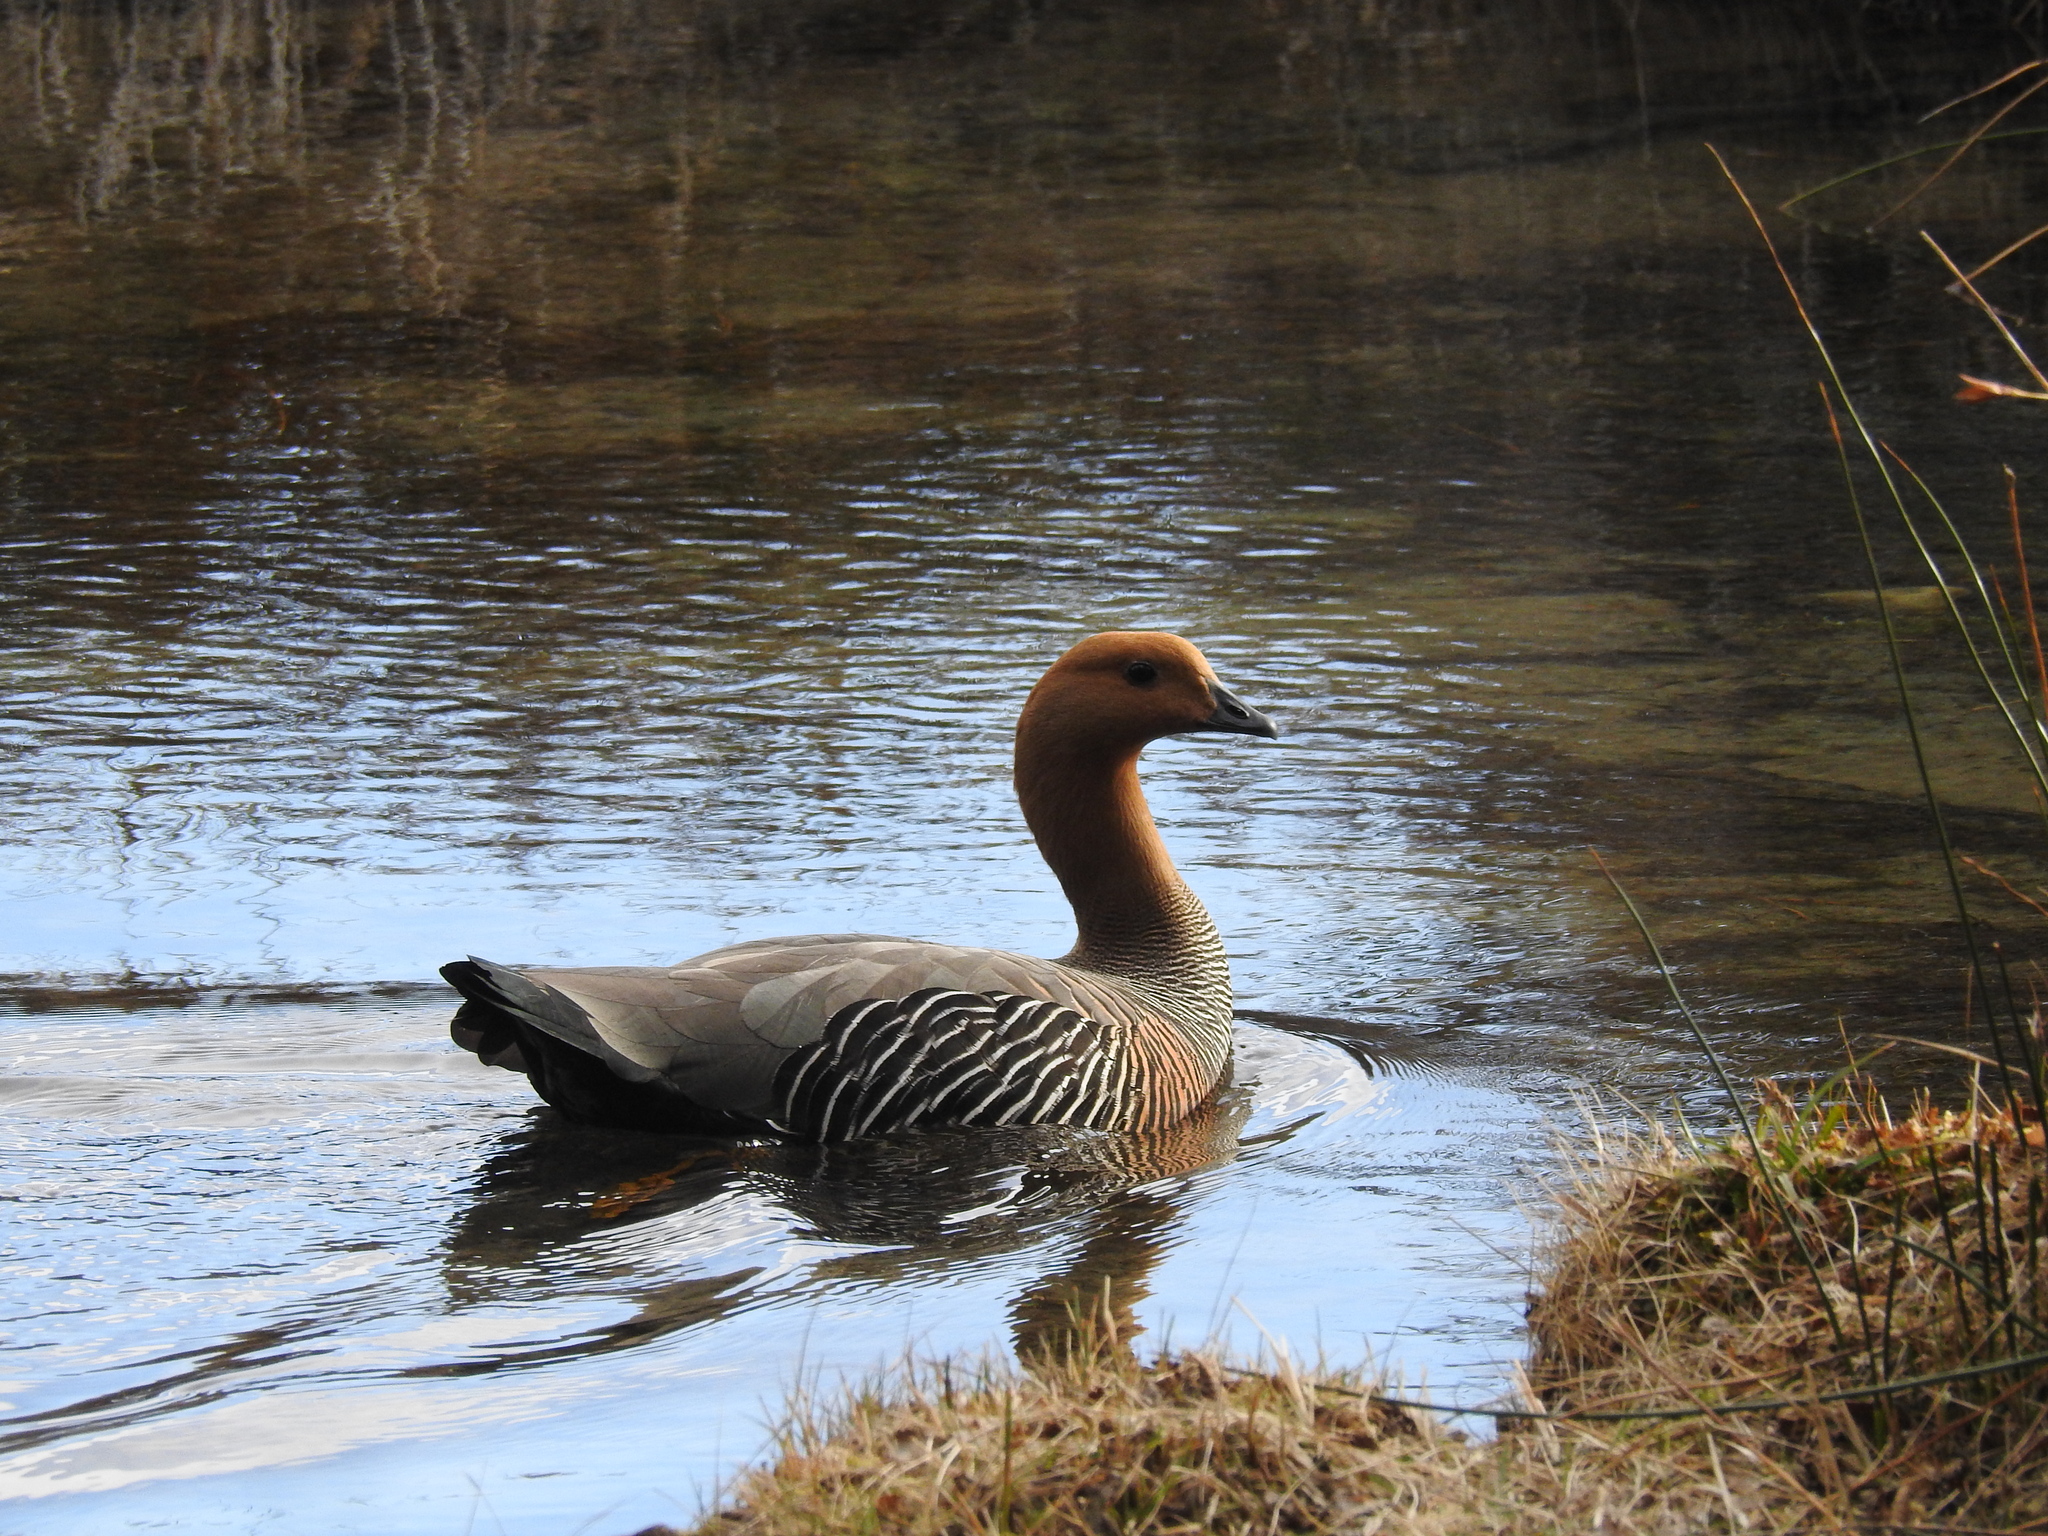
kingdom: Animalia
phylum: Chordata
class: Aves
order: Anseriformes
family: Anatidae
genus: Chloephaga
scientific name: Chloephaga picta
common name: Upland goose
